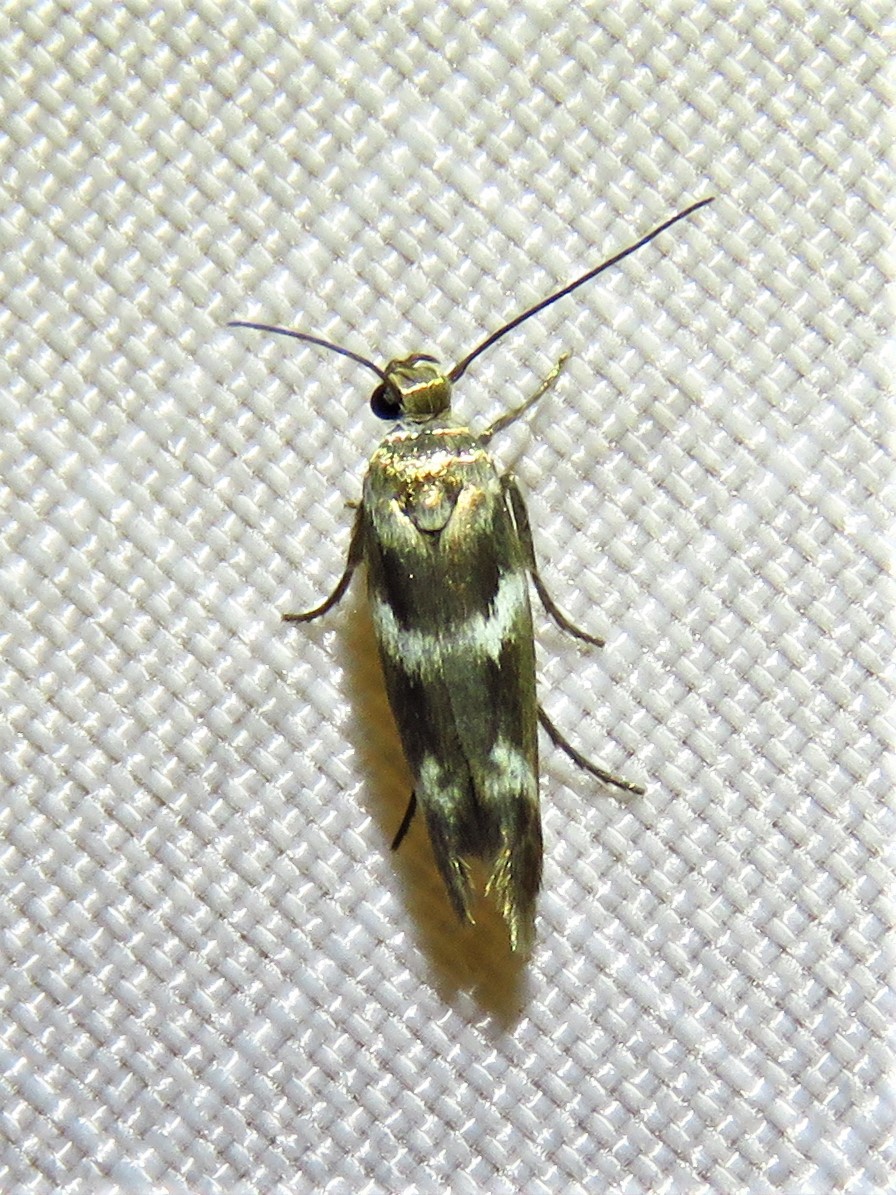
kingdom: Animalia
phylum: Arthropoda
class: Insecta
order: Lepidoptera
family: Scythrididae
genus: Scythris
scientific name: Scythris trivinctella
